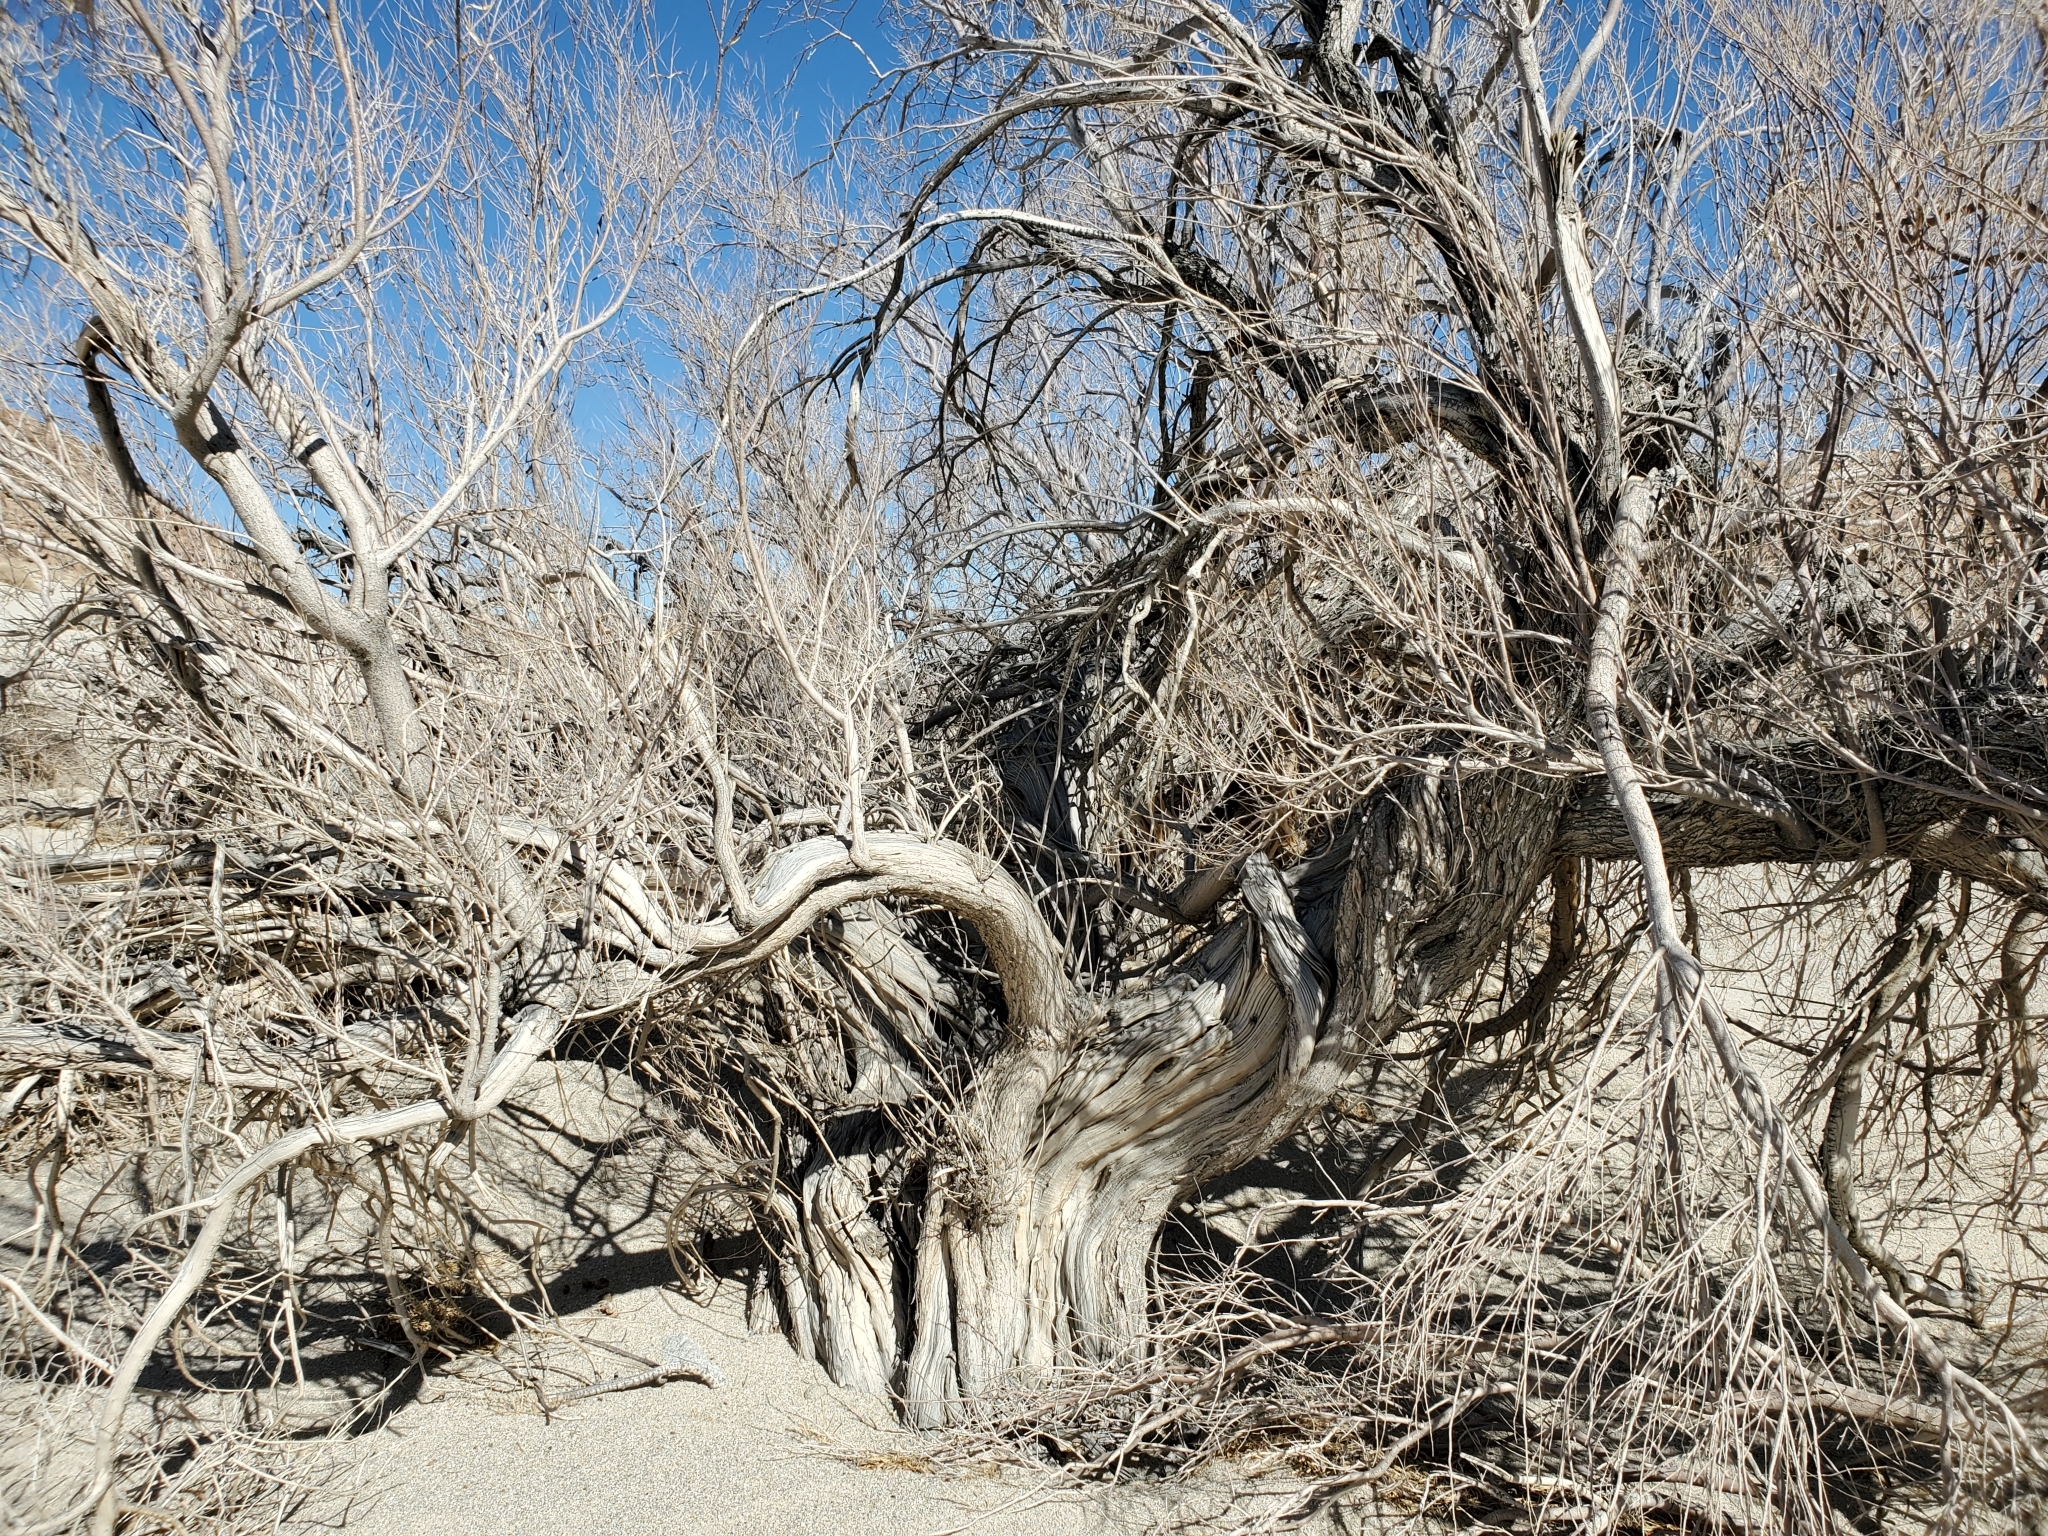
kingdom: Plantae
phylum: Tracheophyta
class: Magnoliopsida
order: Lamiales
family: Bignoniaceae
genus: Chilopsis
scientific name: Chilopsis linearis
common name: Desert-willow
